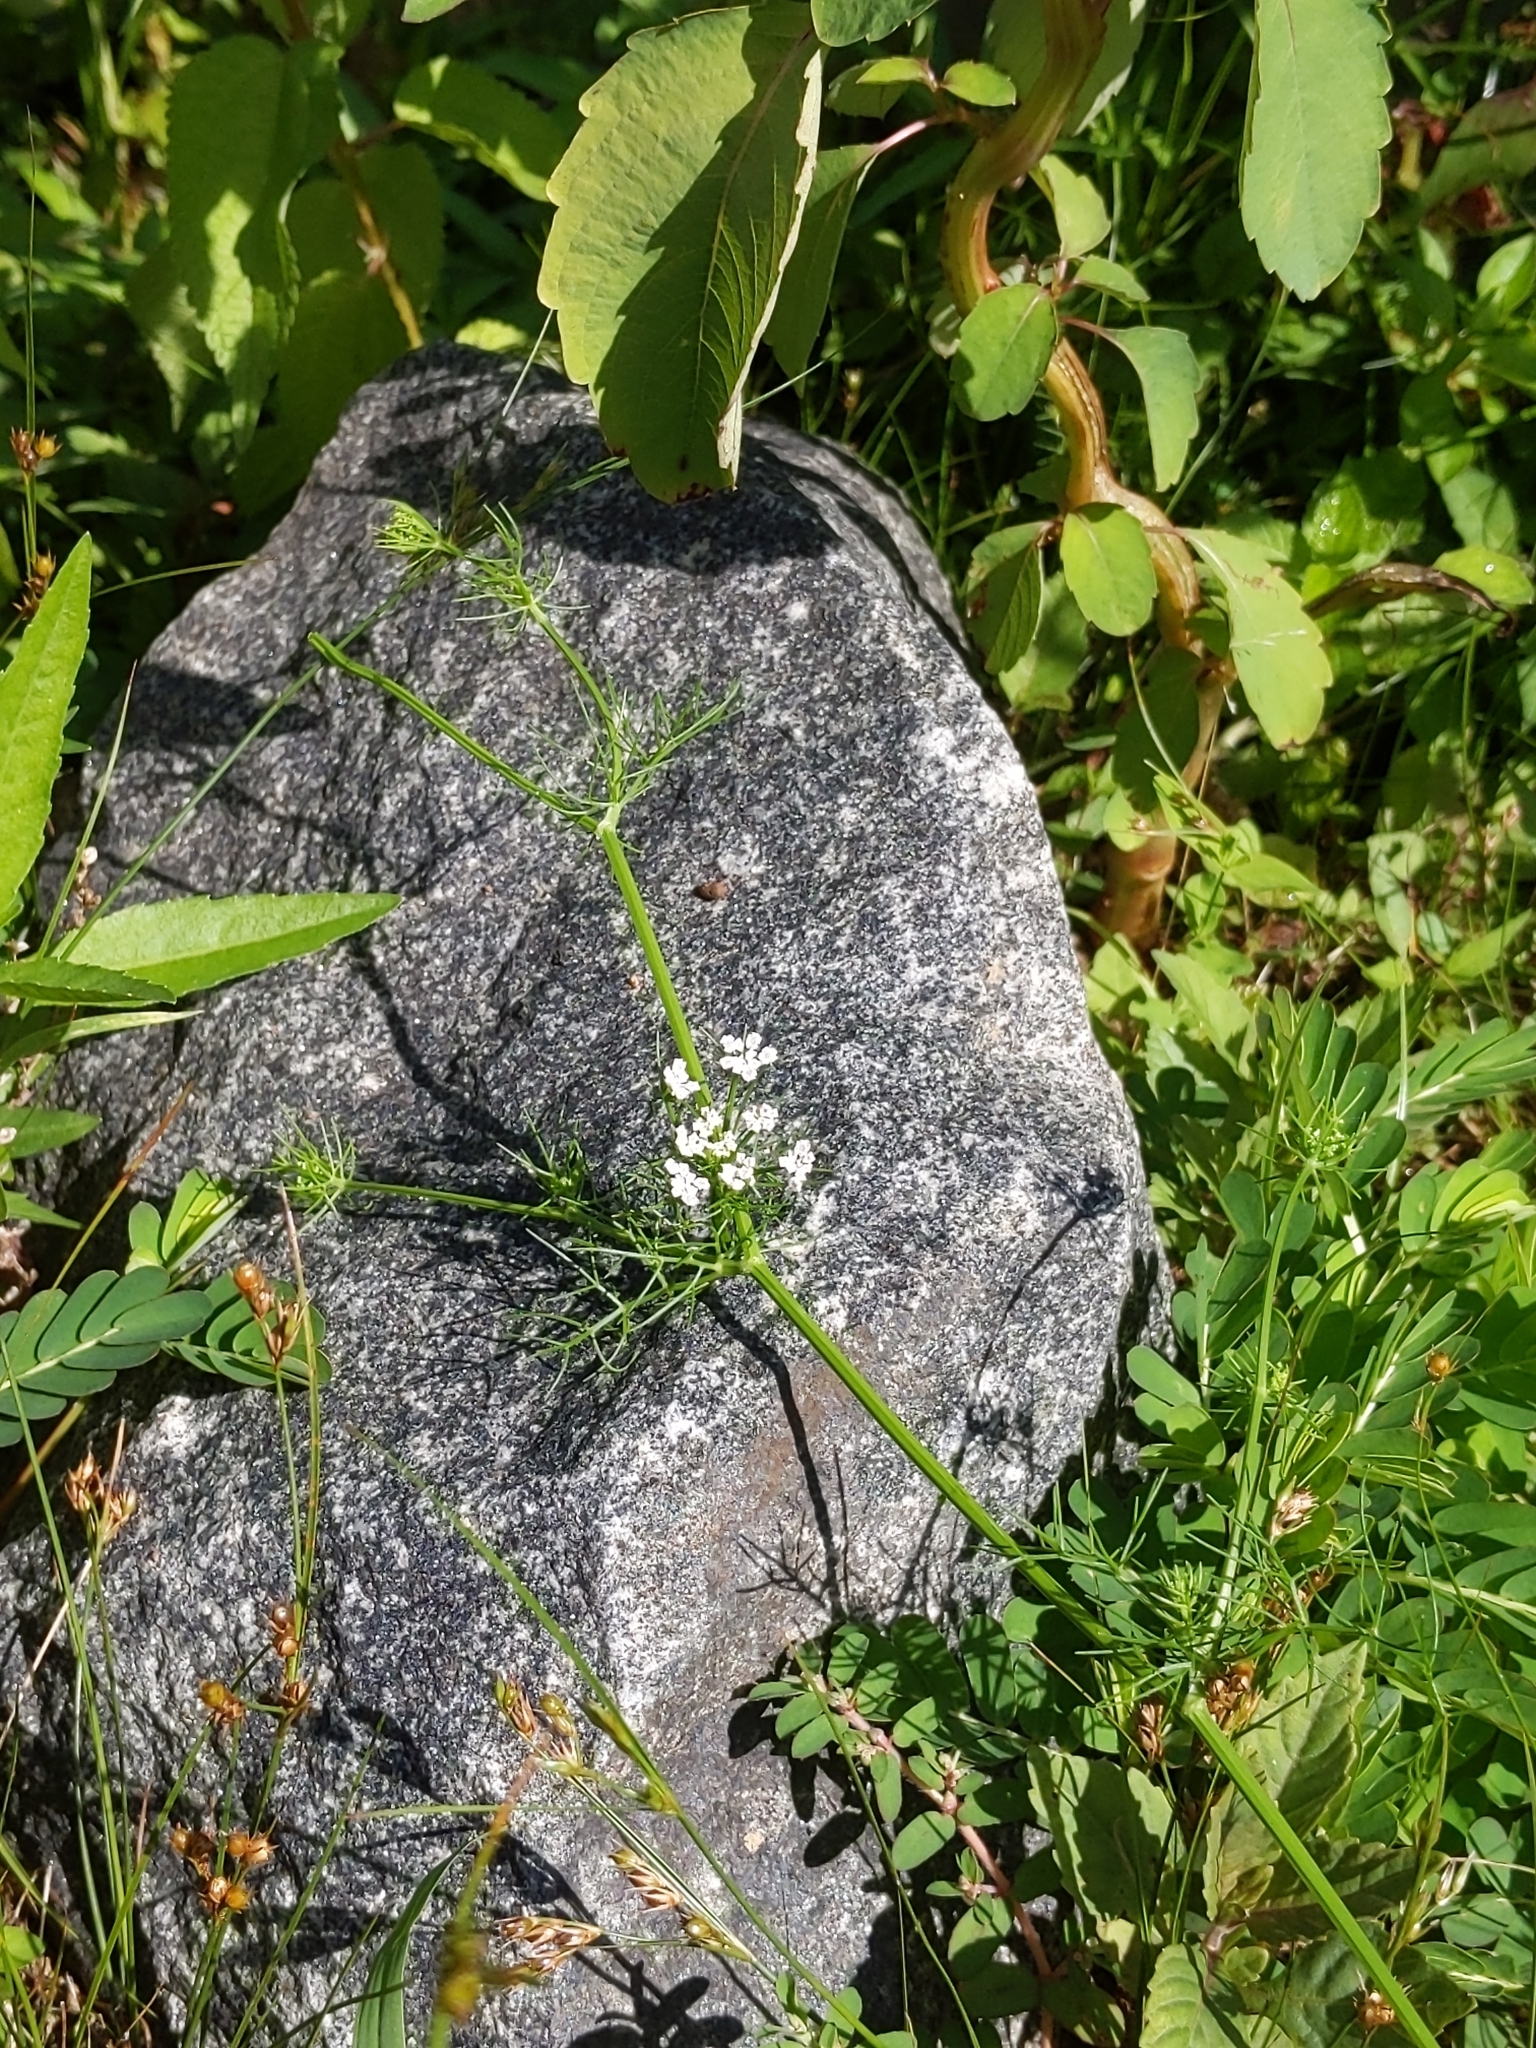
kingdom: Plantae
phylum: Tracheophyta
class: Magnoliopsida
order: Apiales
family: Apiaceae
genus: Ptilimnium
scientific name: Ptilimnium capillaceum
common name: Herbwilliam
